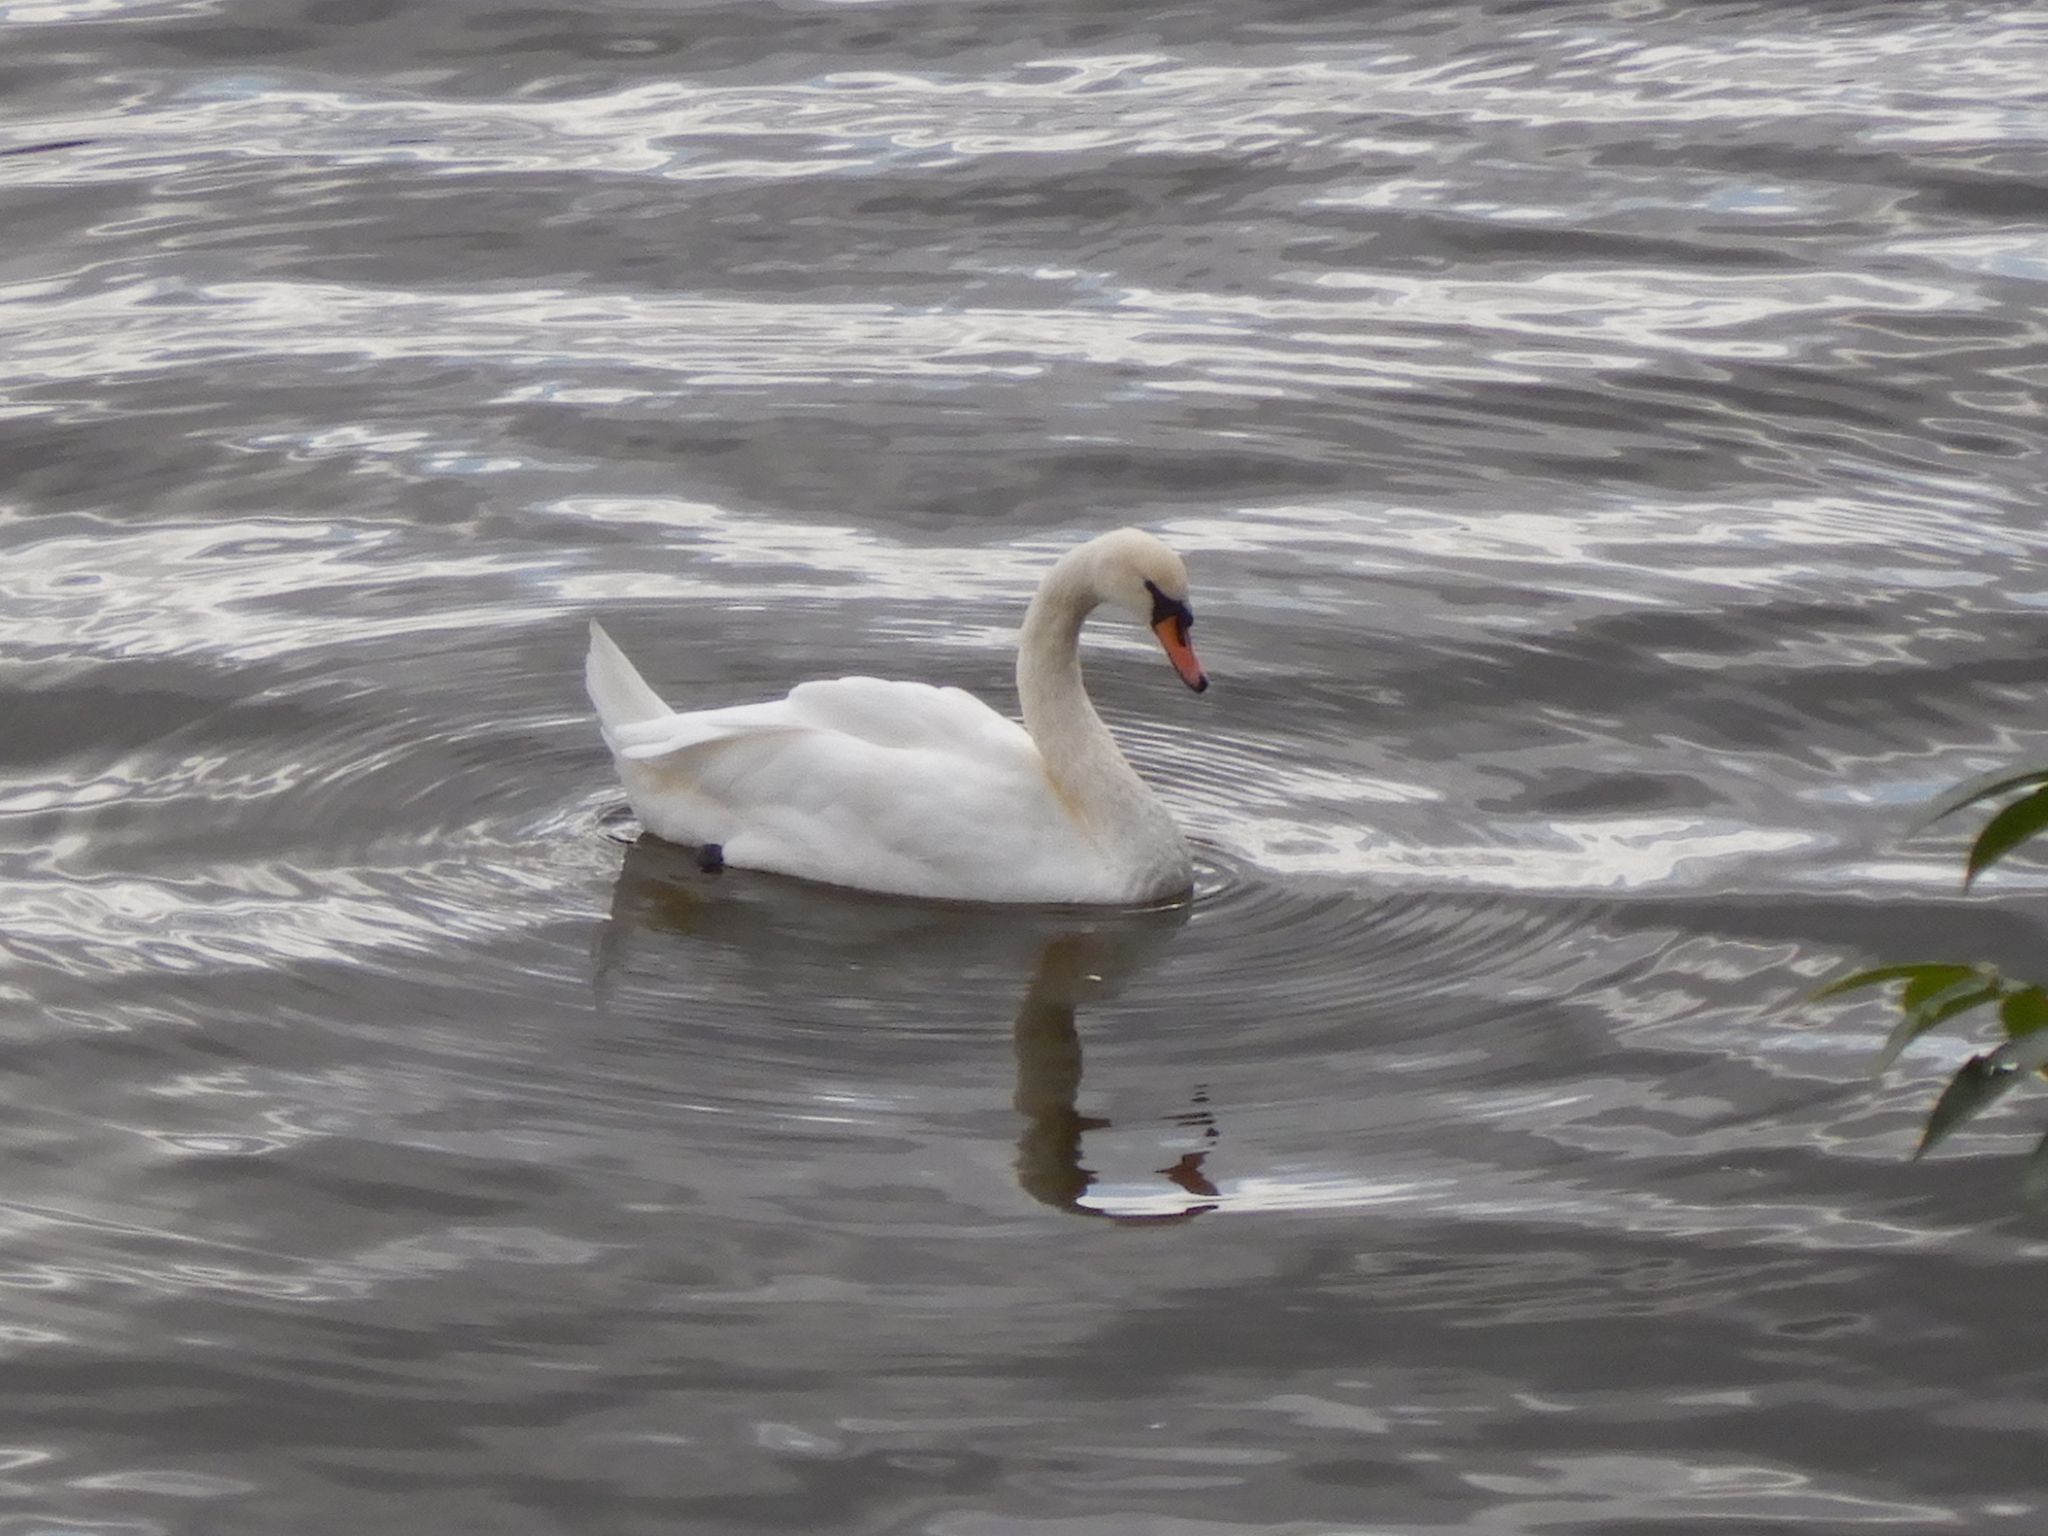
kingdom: Animalia
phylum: Chordata
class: Aves
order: Anseriformes
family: Anatidae
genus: Cygnus
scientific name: Cygnus olor
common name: Mute swan
